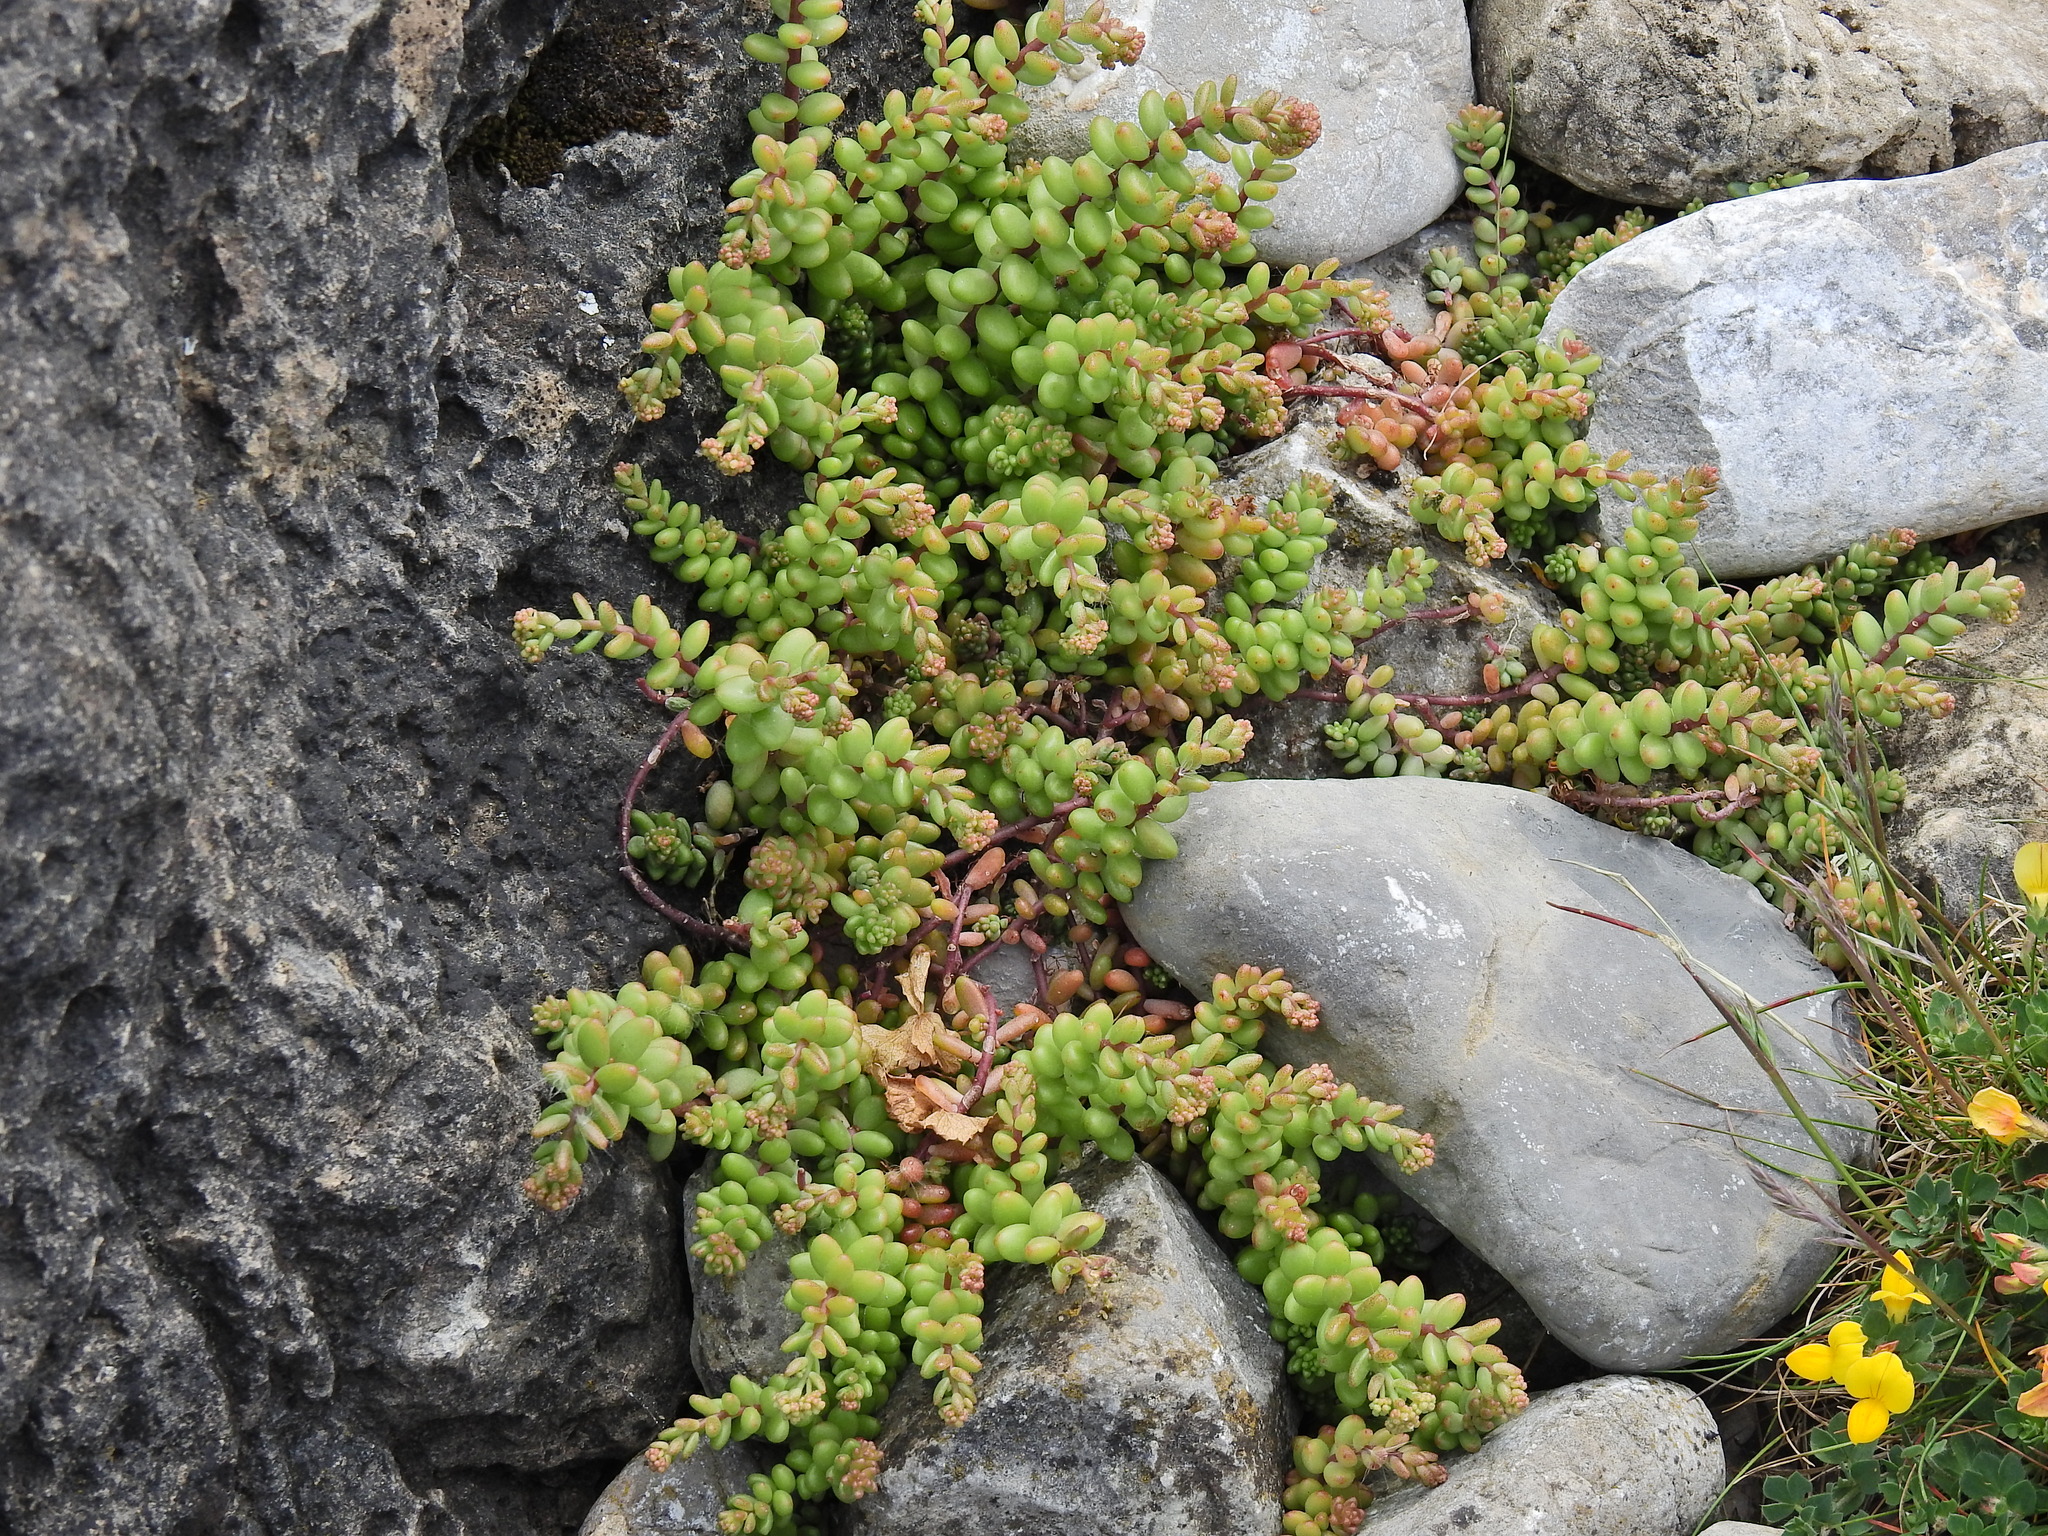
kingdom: Plantae
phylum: Tracheophyta
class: Magnoliopsida
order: Saxifragales
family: Crassulaceae
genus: Sedum
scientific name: Sedum album
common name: White stonecrop
